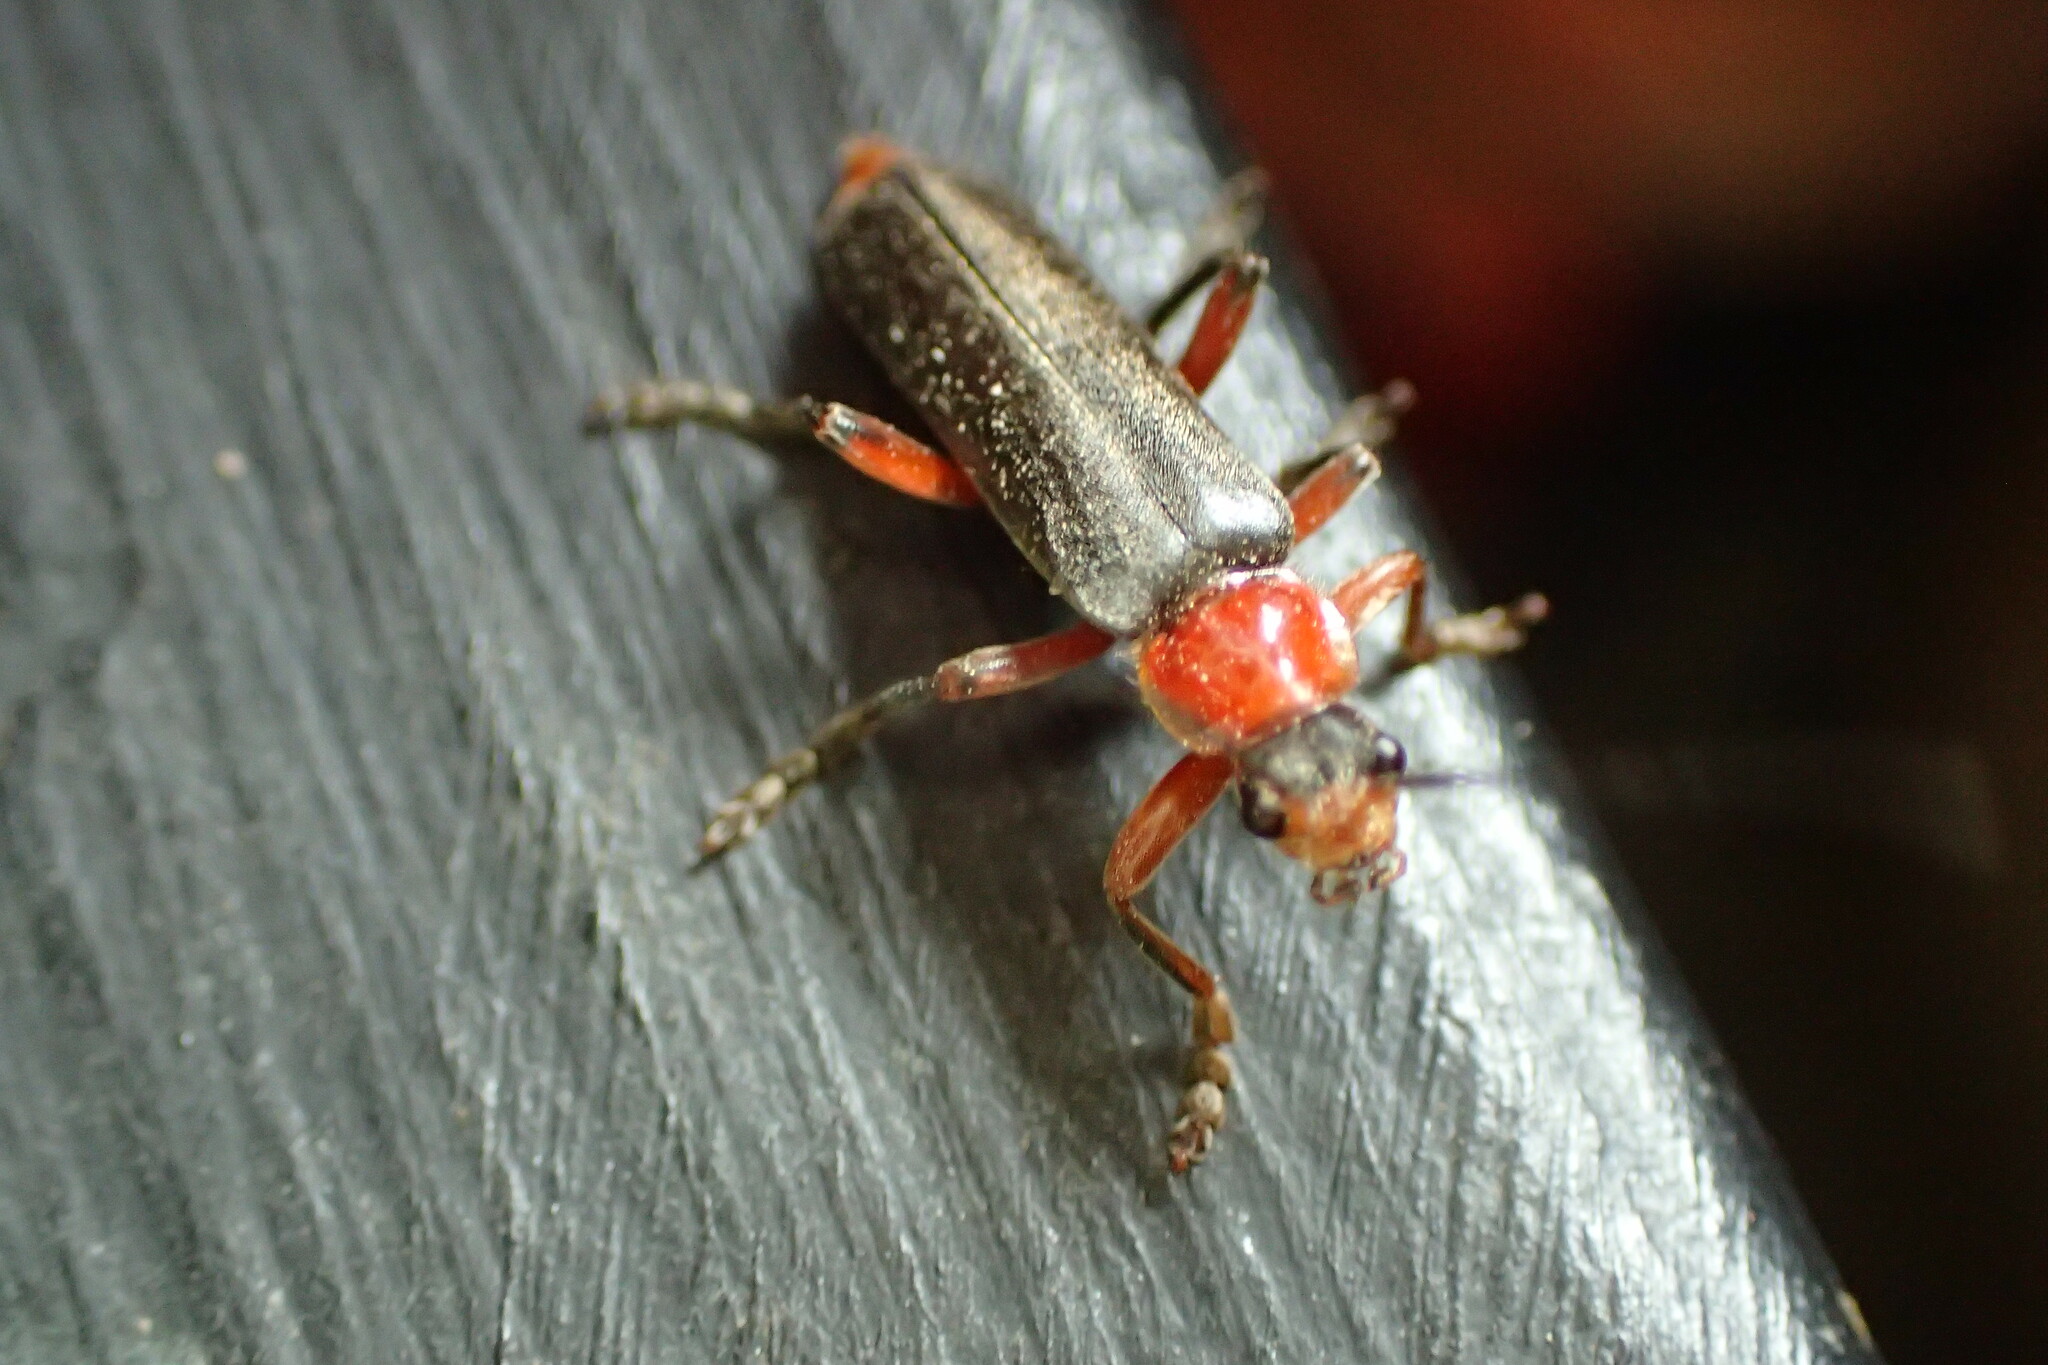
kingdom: Animalia
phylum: Arthropoda
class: Insecta
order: Coleoptera
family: Cantharidae
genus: Cantharis
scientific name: Cantharis pellucida
